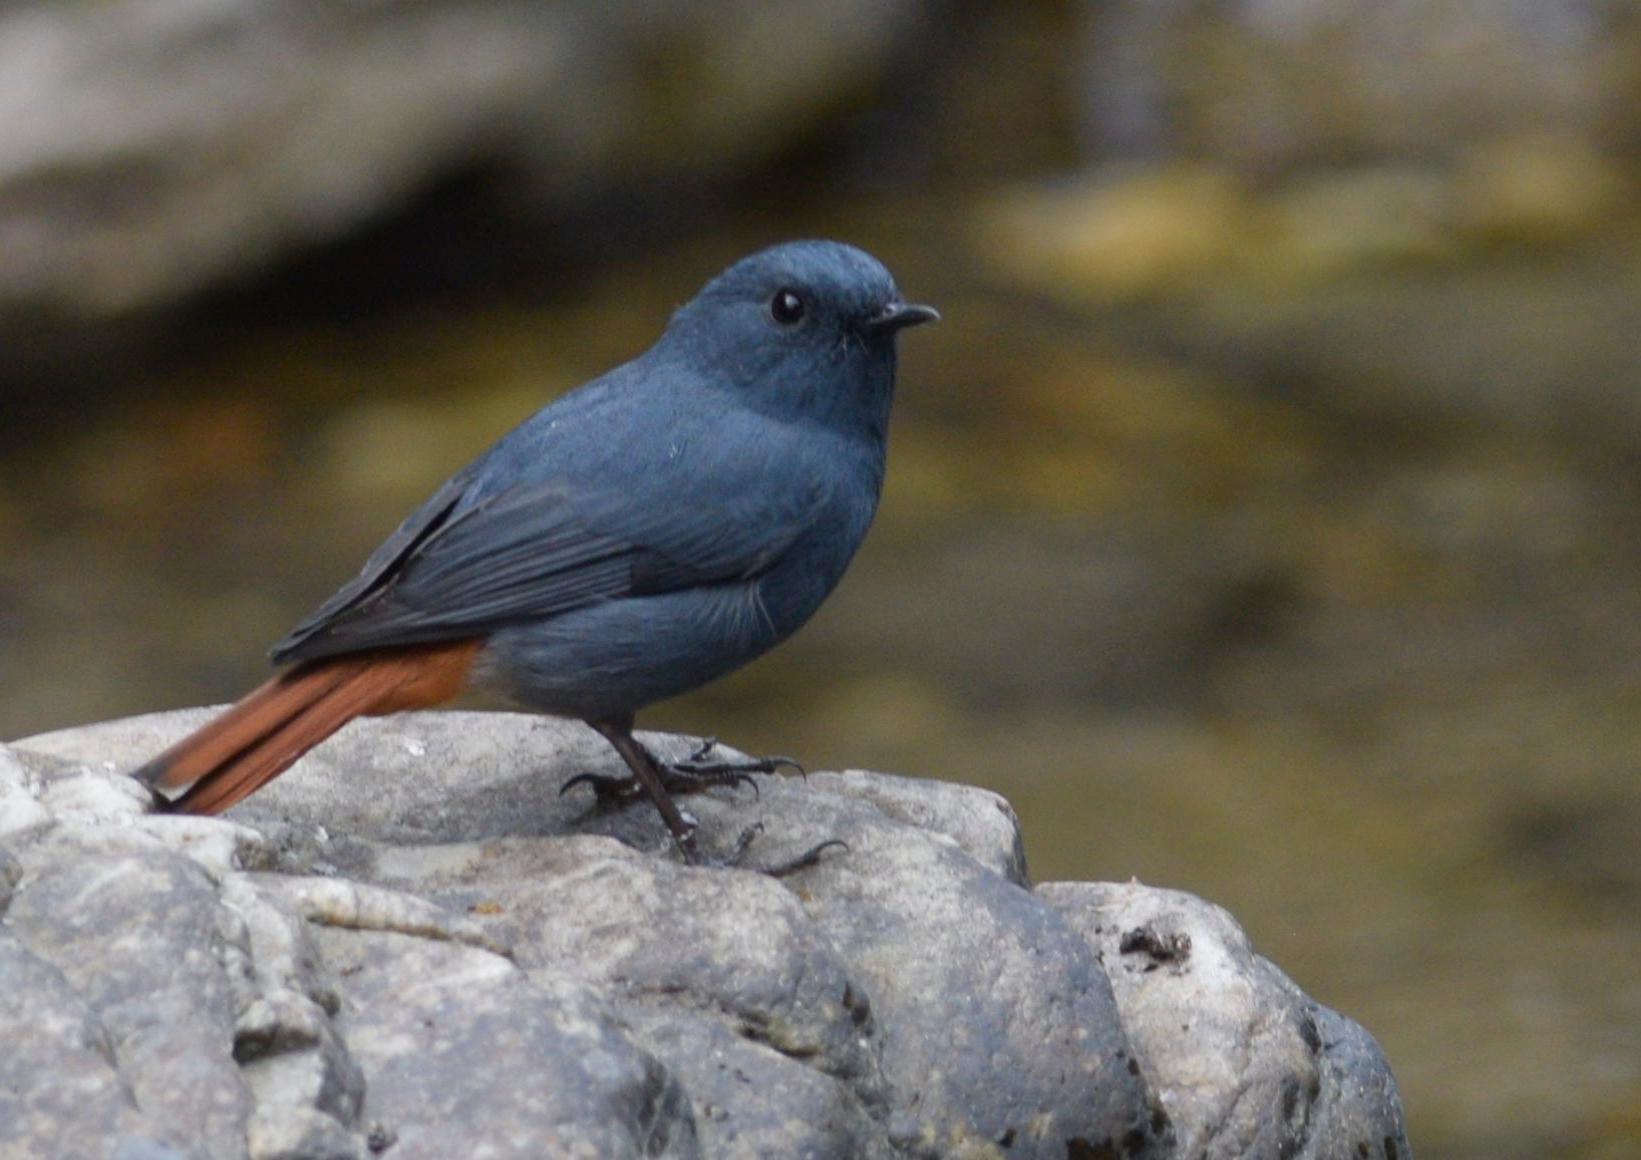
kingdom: Animalia
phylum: Chordata
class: Aves
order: Passeriformes
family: Muscicapidae
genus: Phoenicurus
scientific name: Phoenicurus fuliginosus
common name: Plumbeous water redstart
